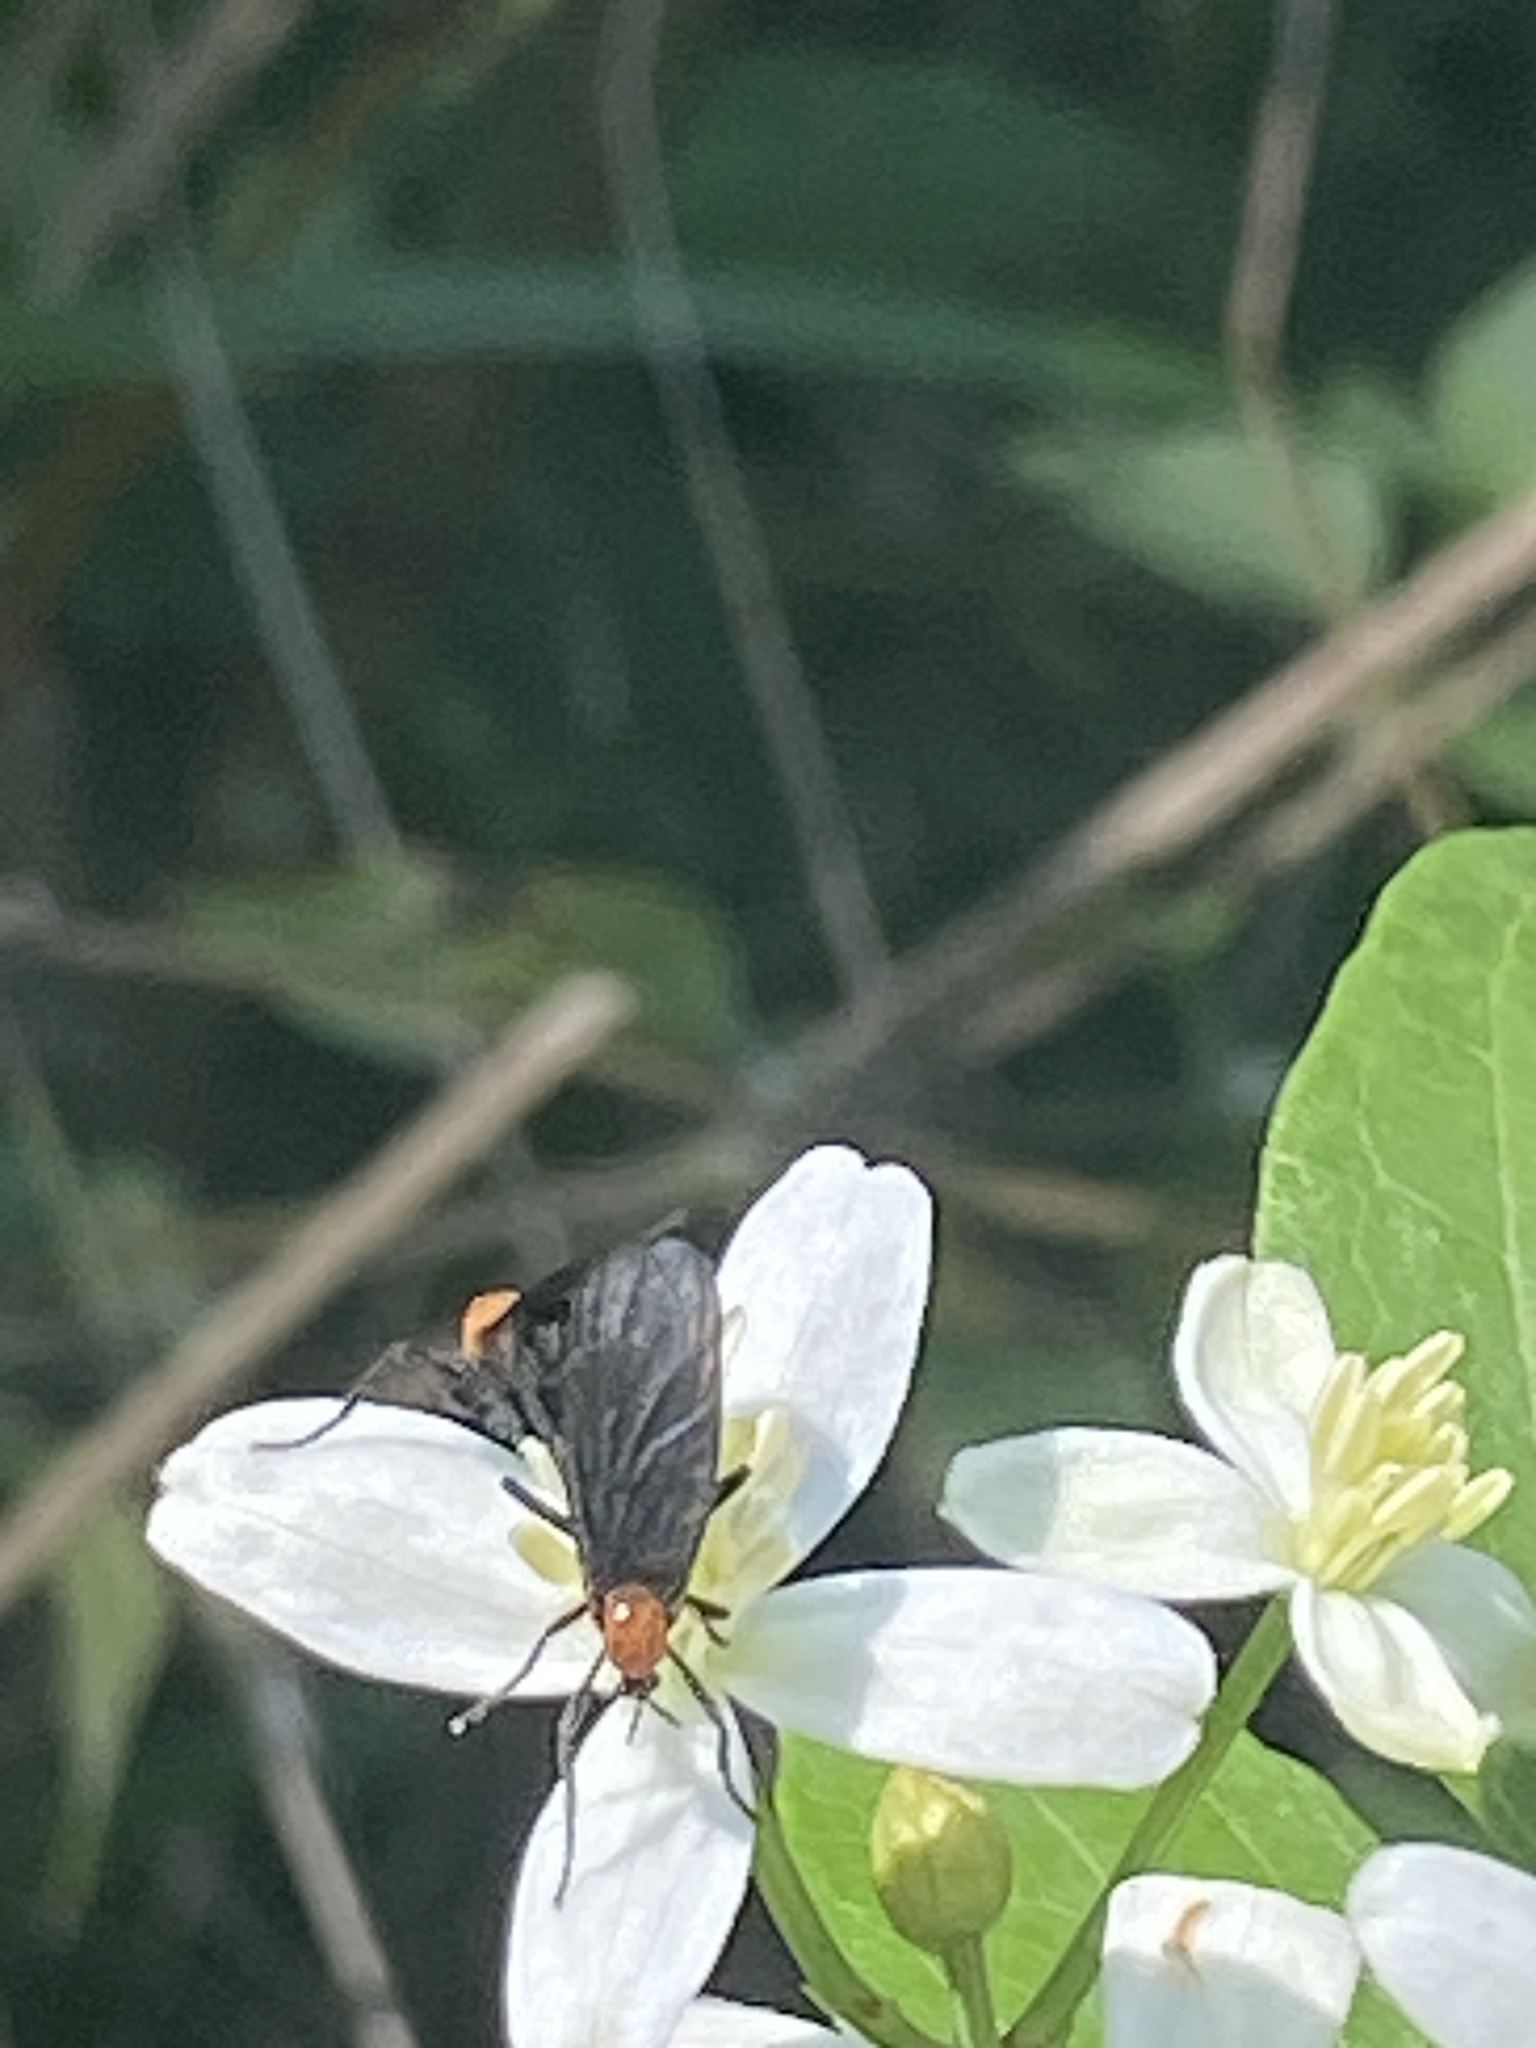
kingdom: Animalia
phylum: Arthropoda
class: Insecta
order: Diptera
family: Bibionidae
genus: Plecia
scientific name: Plecia nearctica
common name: March fly
